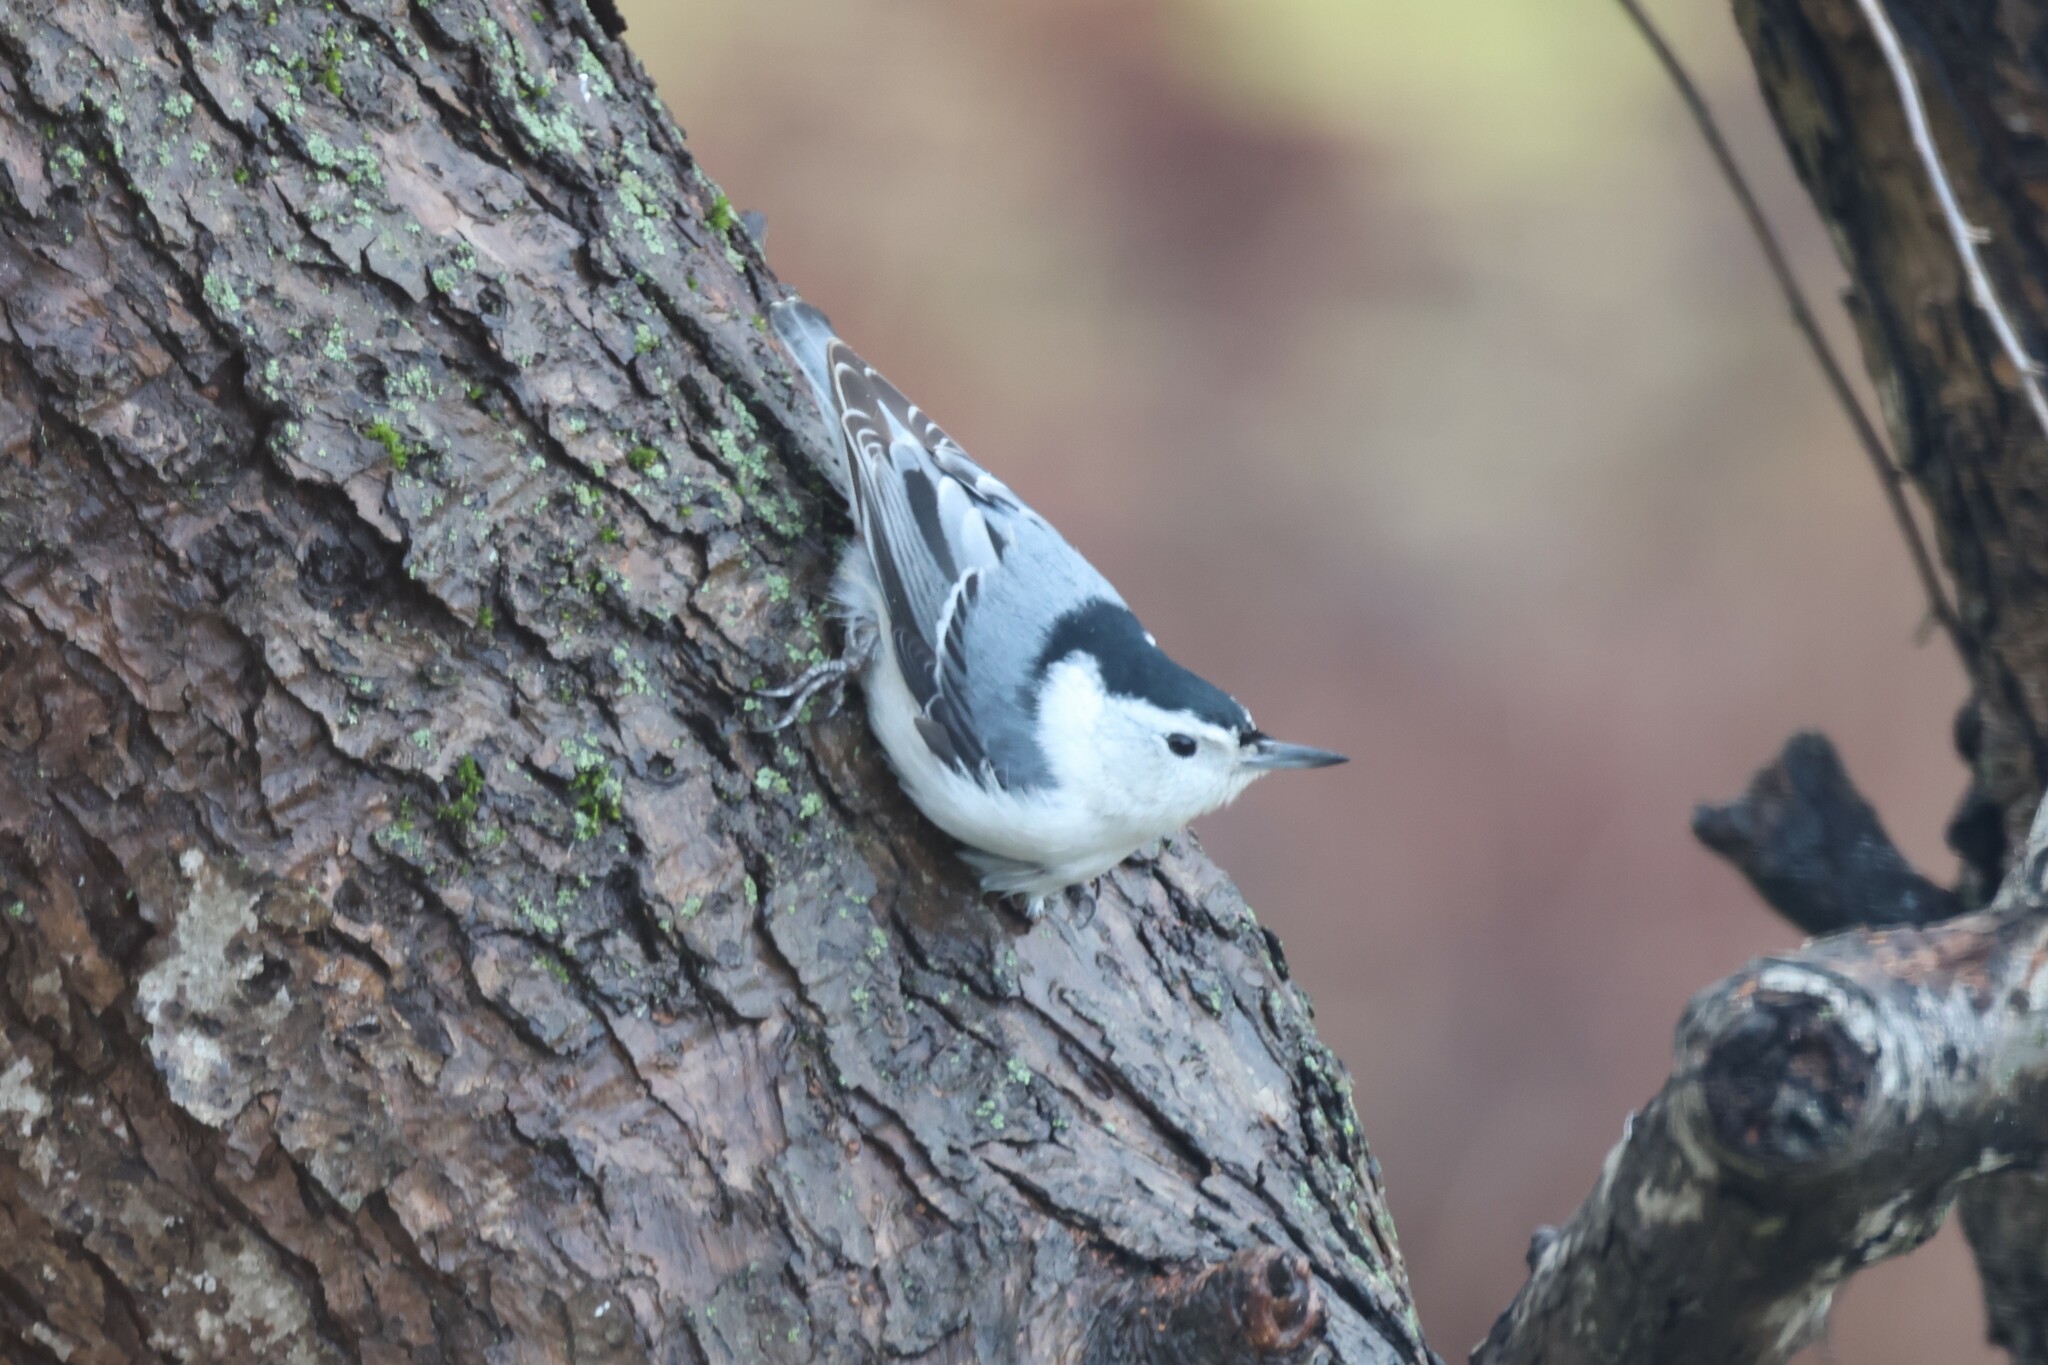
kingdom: Animalia
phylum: Chordata
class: Aves
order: Passeriformes
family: Sittidae
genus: Sitta
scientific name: Sitta carolinensis
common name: White-breasted nuthatch
